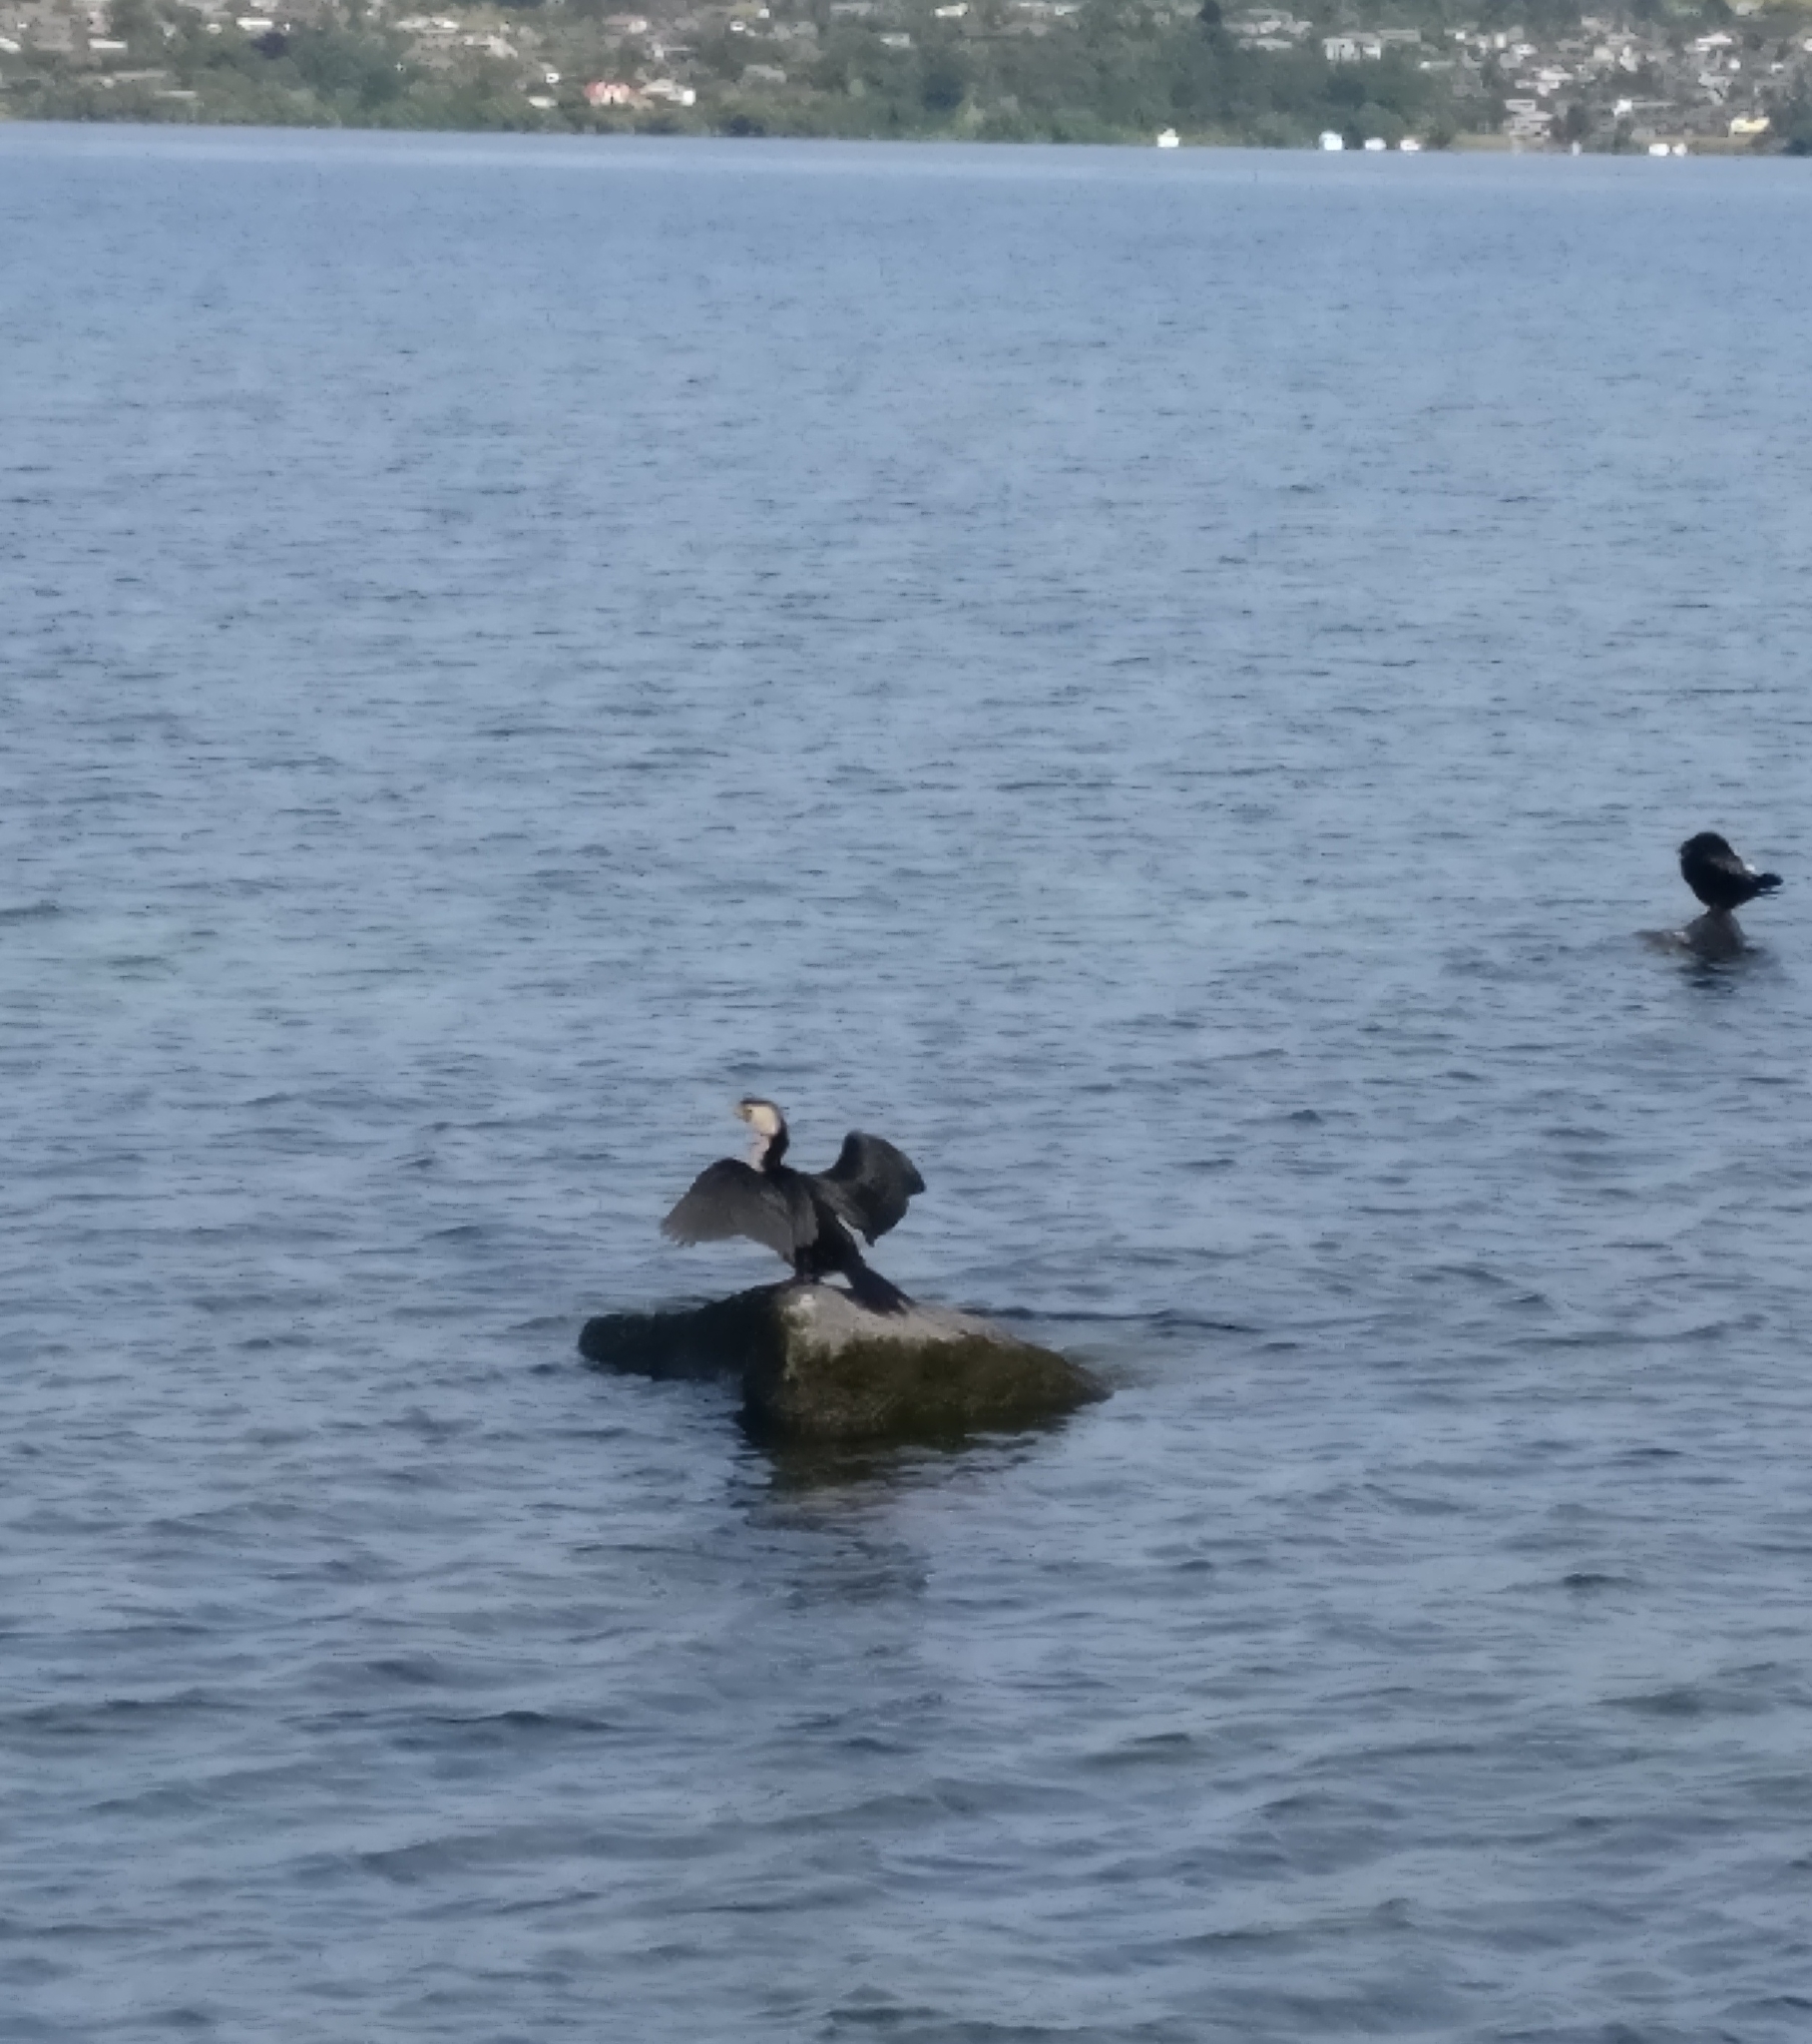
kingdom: Animalia
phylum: Chordata
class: Aves
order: Suliformes
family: Phalacrocoracidae
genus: Microcarbo
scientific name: Microcarbo melanoleucos
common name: Little pied cormorant
